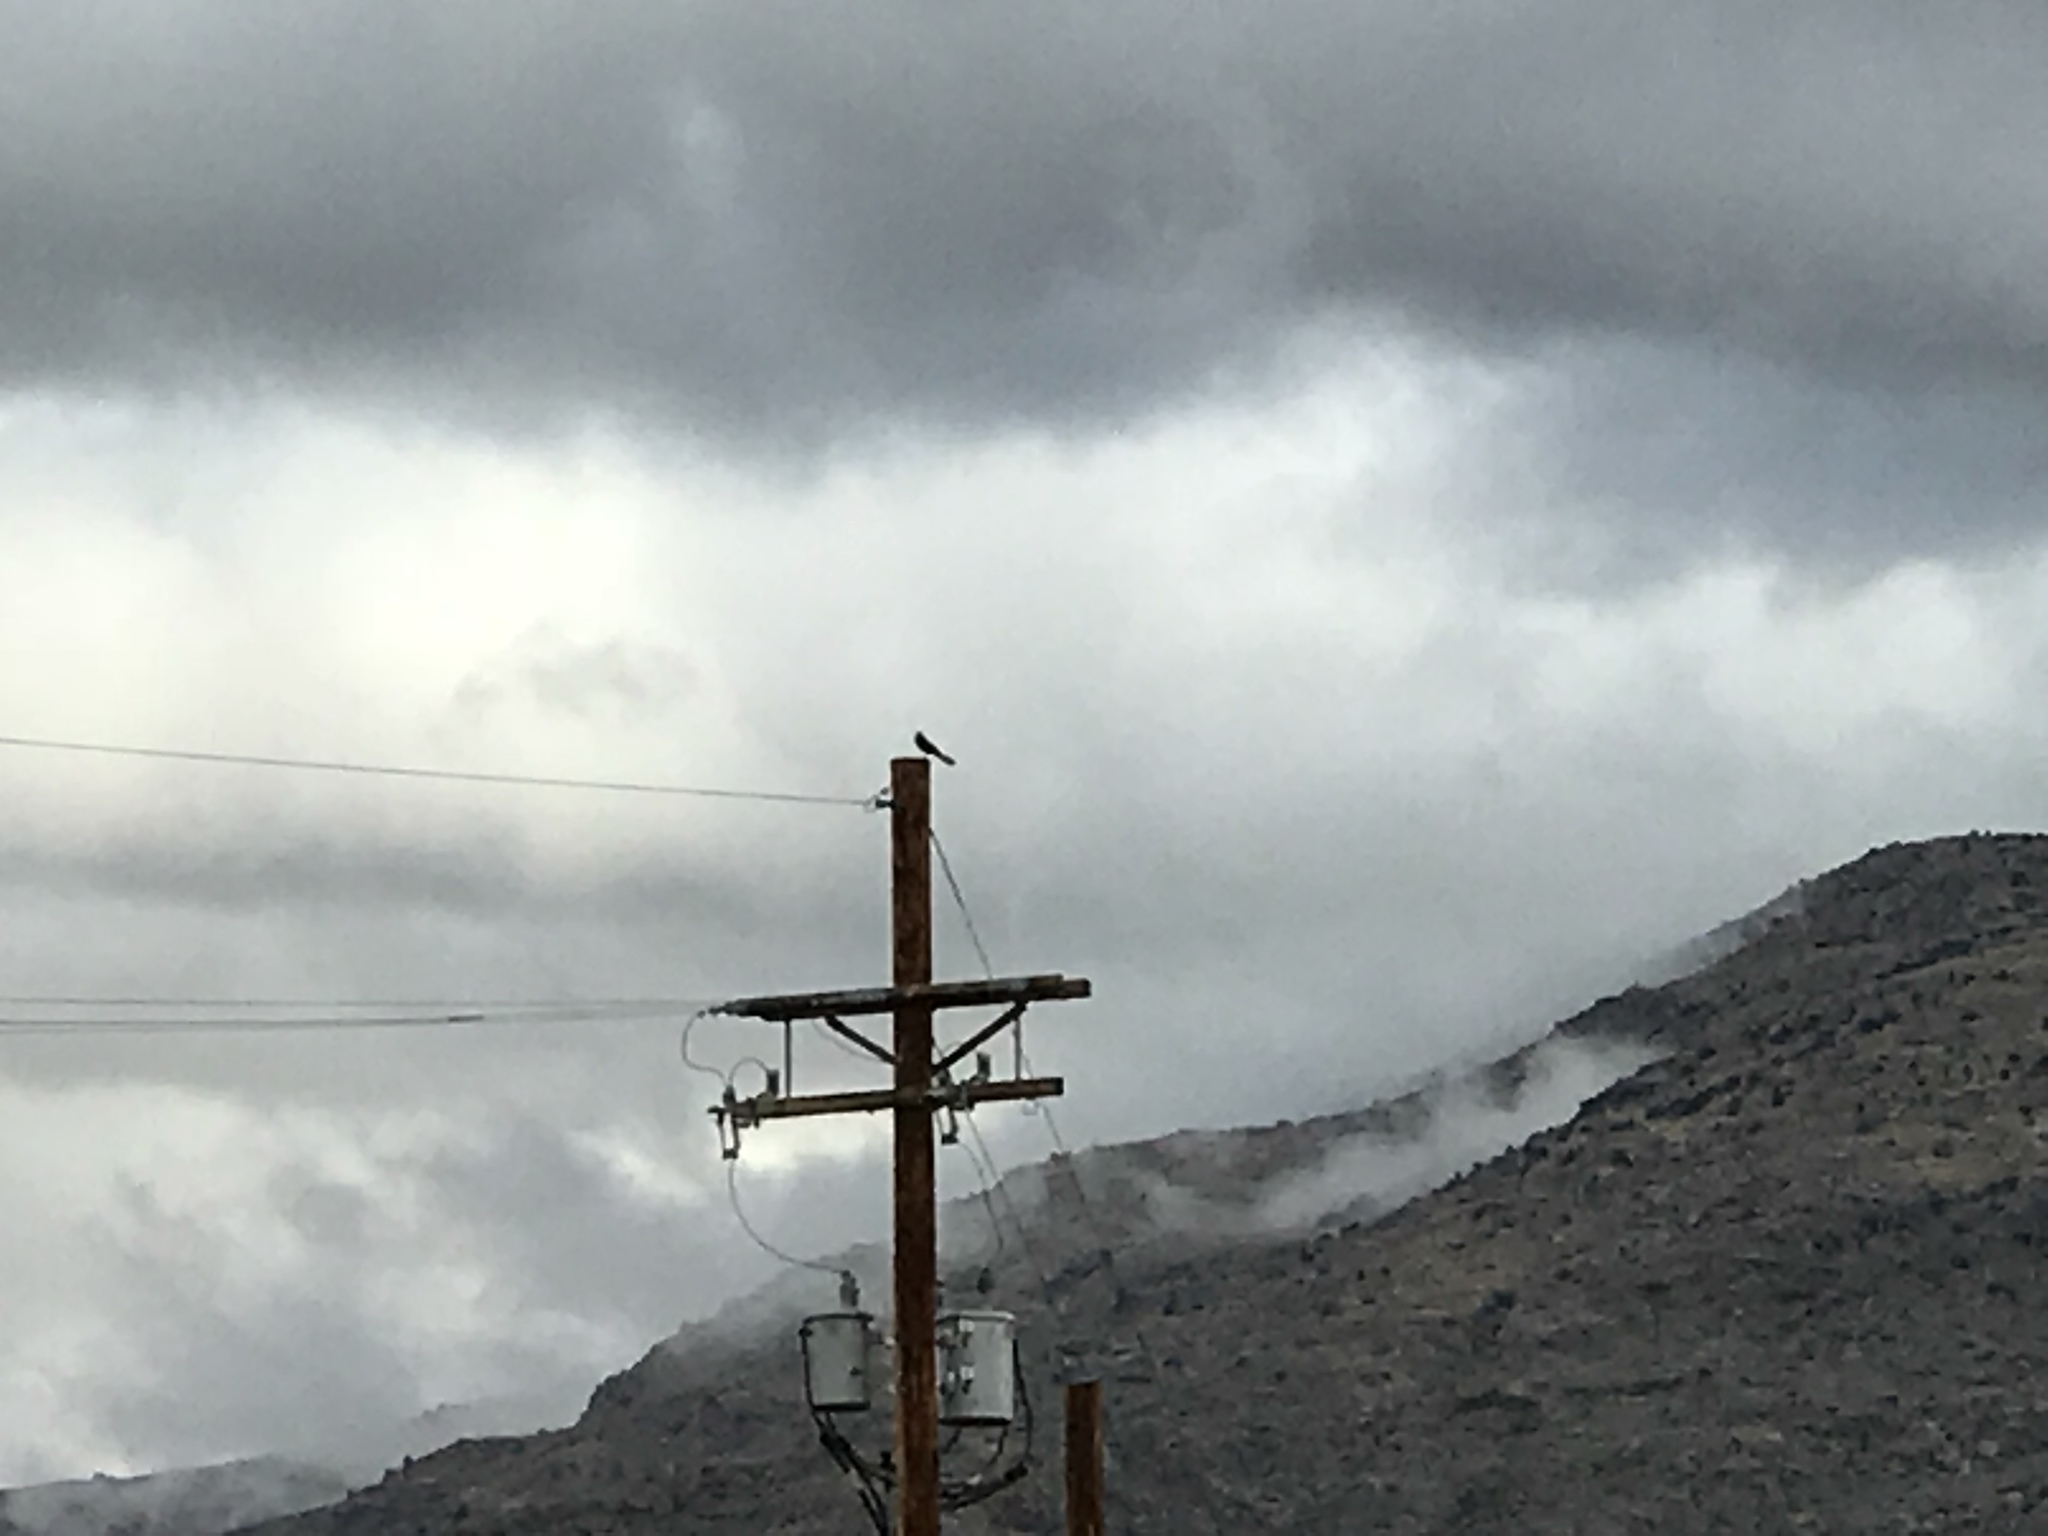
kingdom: Animalia
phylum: Chordata
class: Aves
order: Passeriformes
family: Icteridae
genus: Quiscalus
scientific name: Quiscalus mexicanus
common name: Great-tailed grackle
